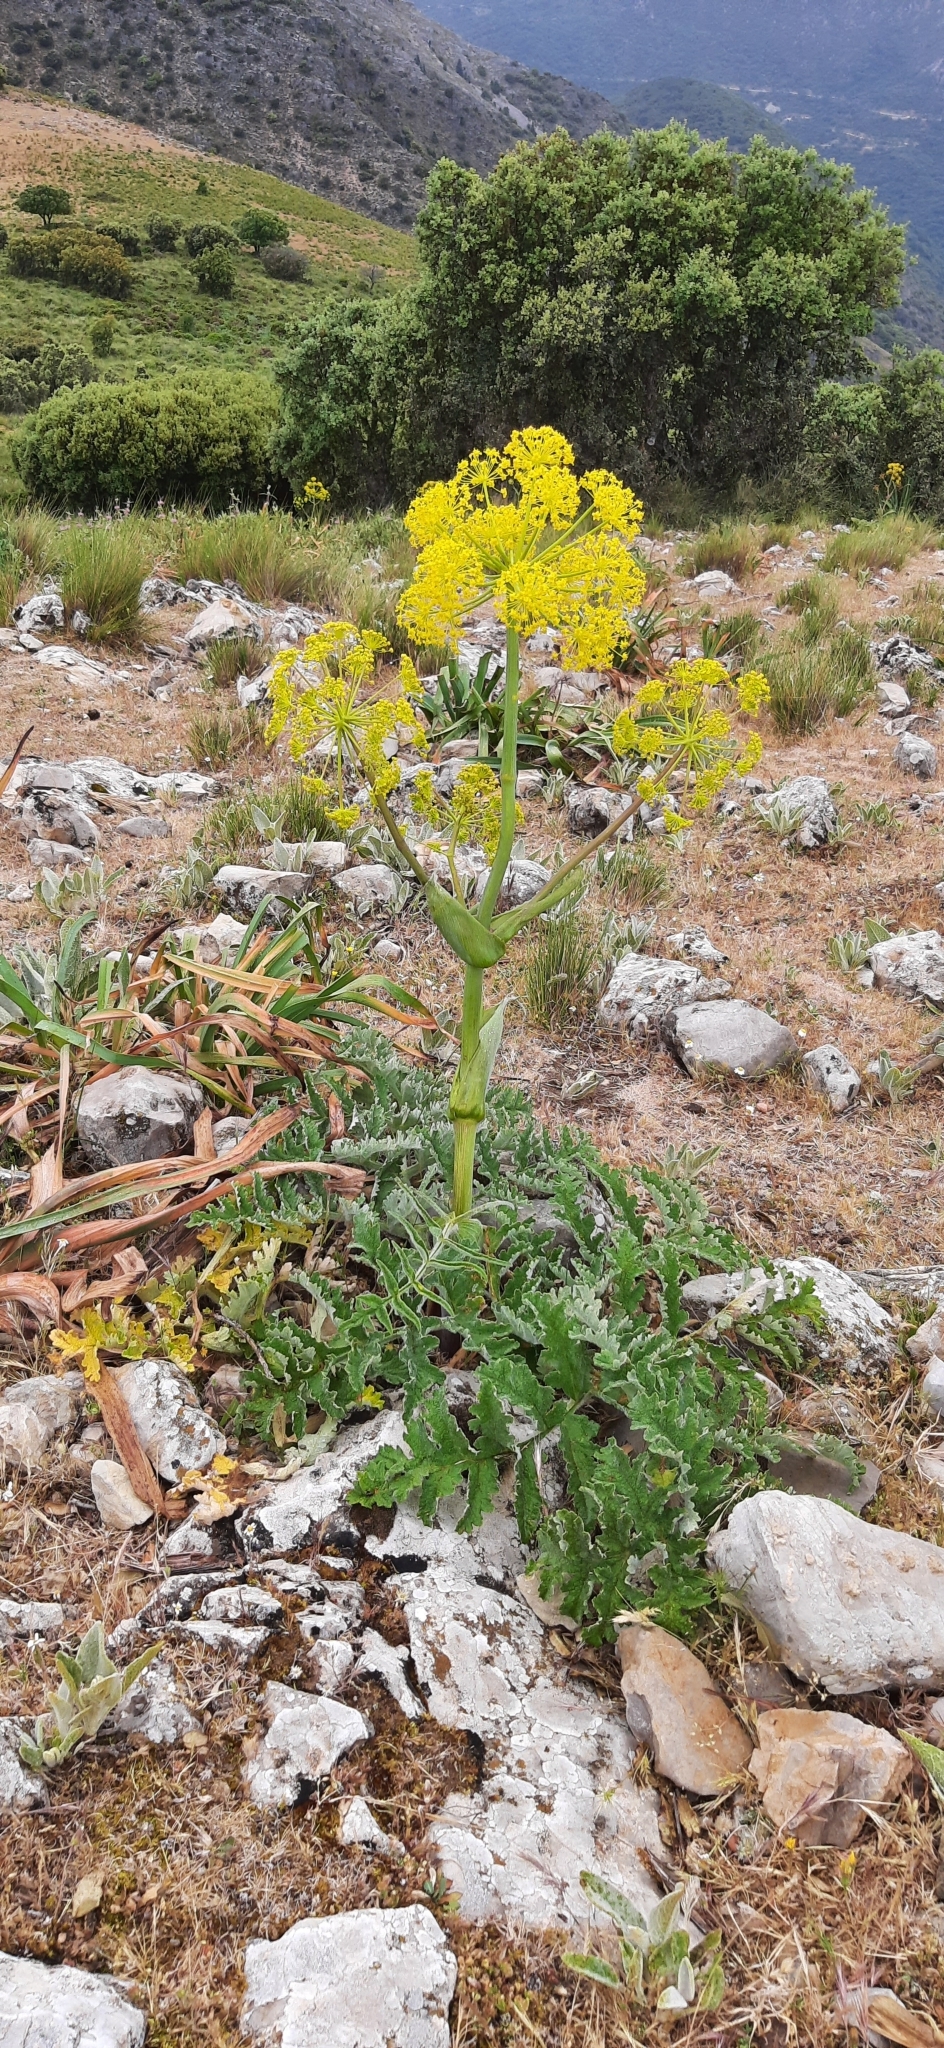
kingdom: Plantae
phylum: Tracheophyta
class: Magnoliopsida
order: Apiales
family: Apiaceae
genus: Thapsia
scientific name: Thapsia villosa
